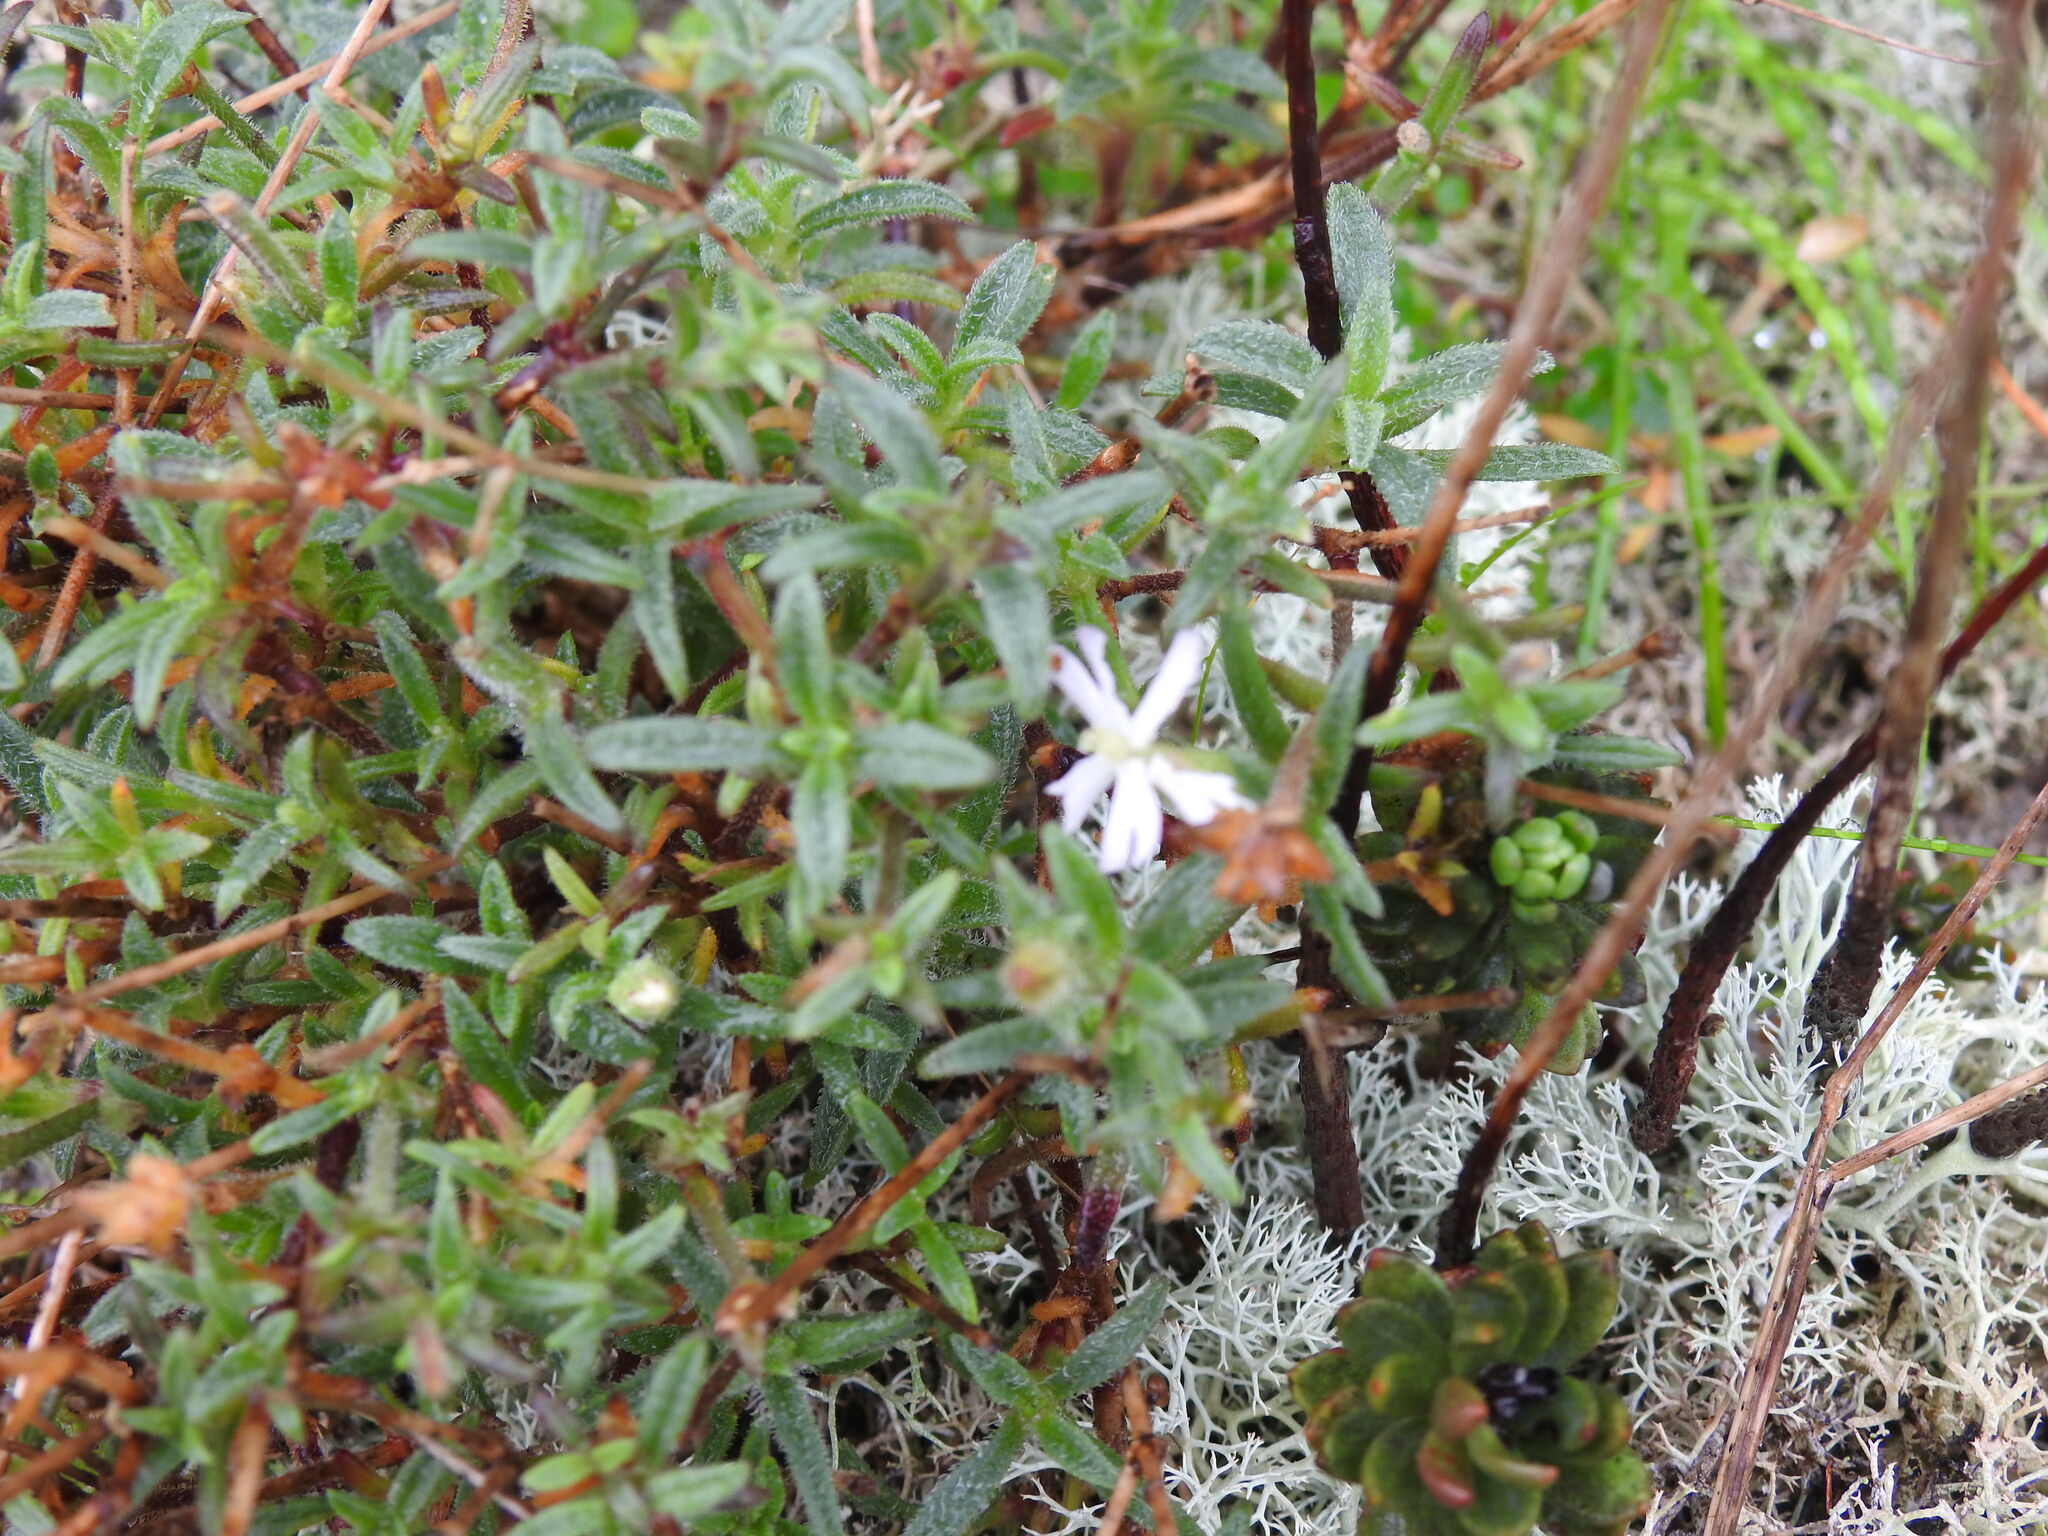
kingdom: Plantae
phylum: Tracheophyta
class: Magnoliopsida
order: Caryophyllales
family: Caryophyllaceae
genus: Silene
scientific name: Silene nicaeensis
